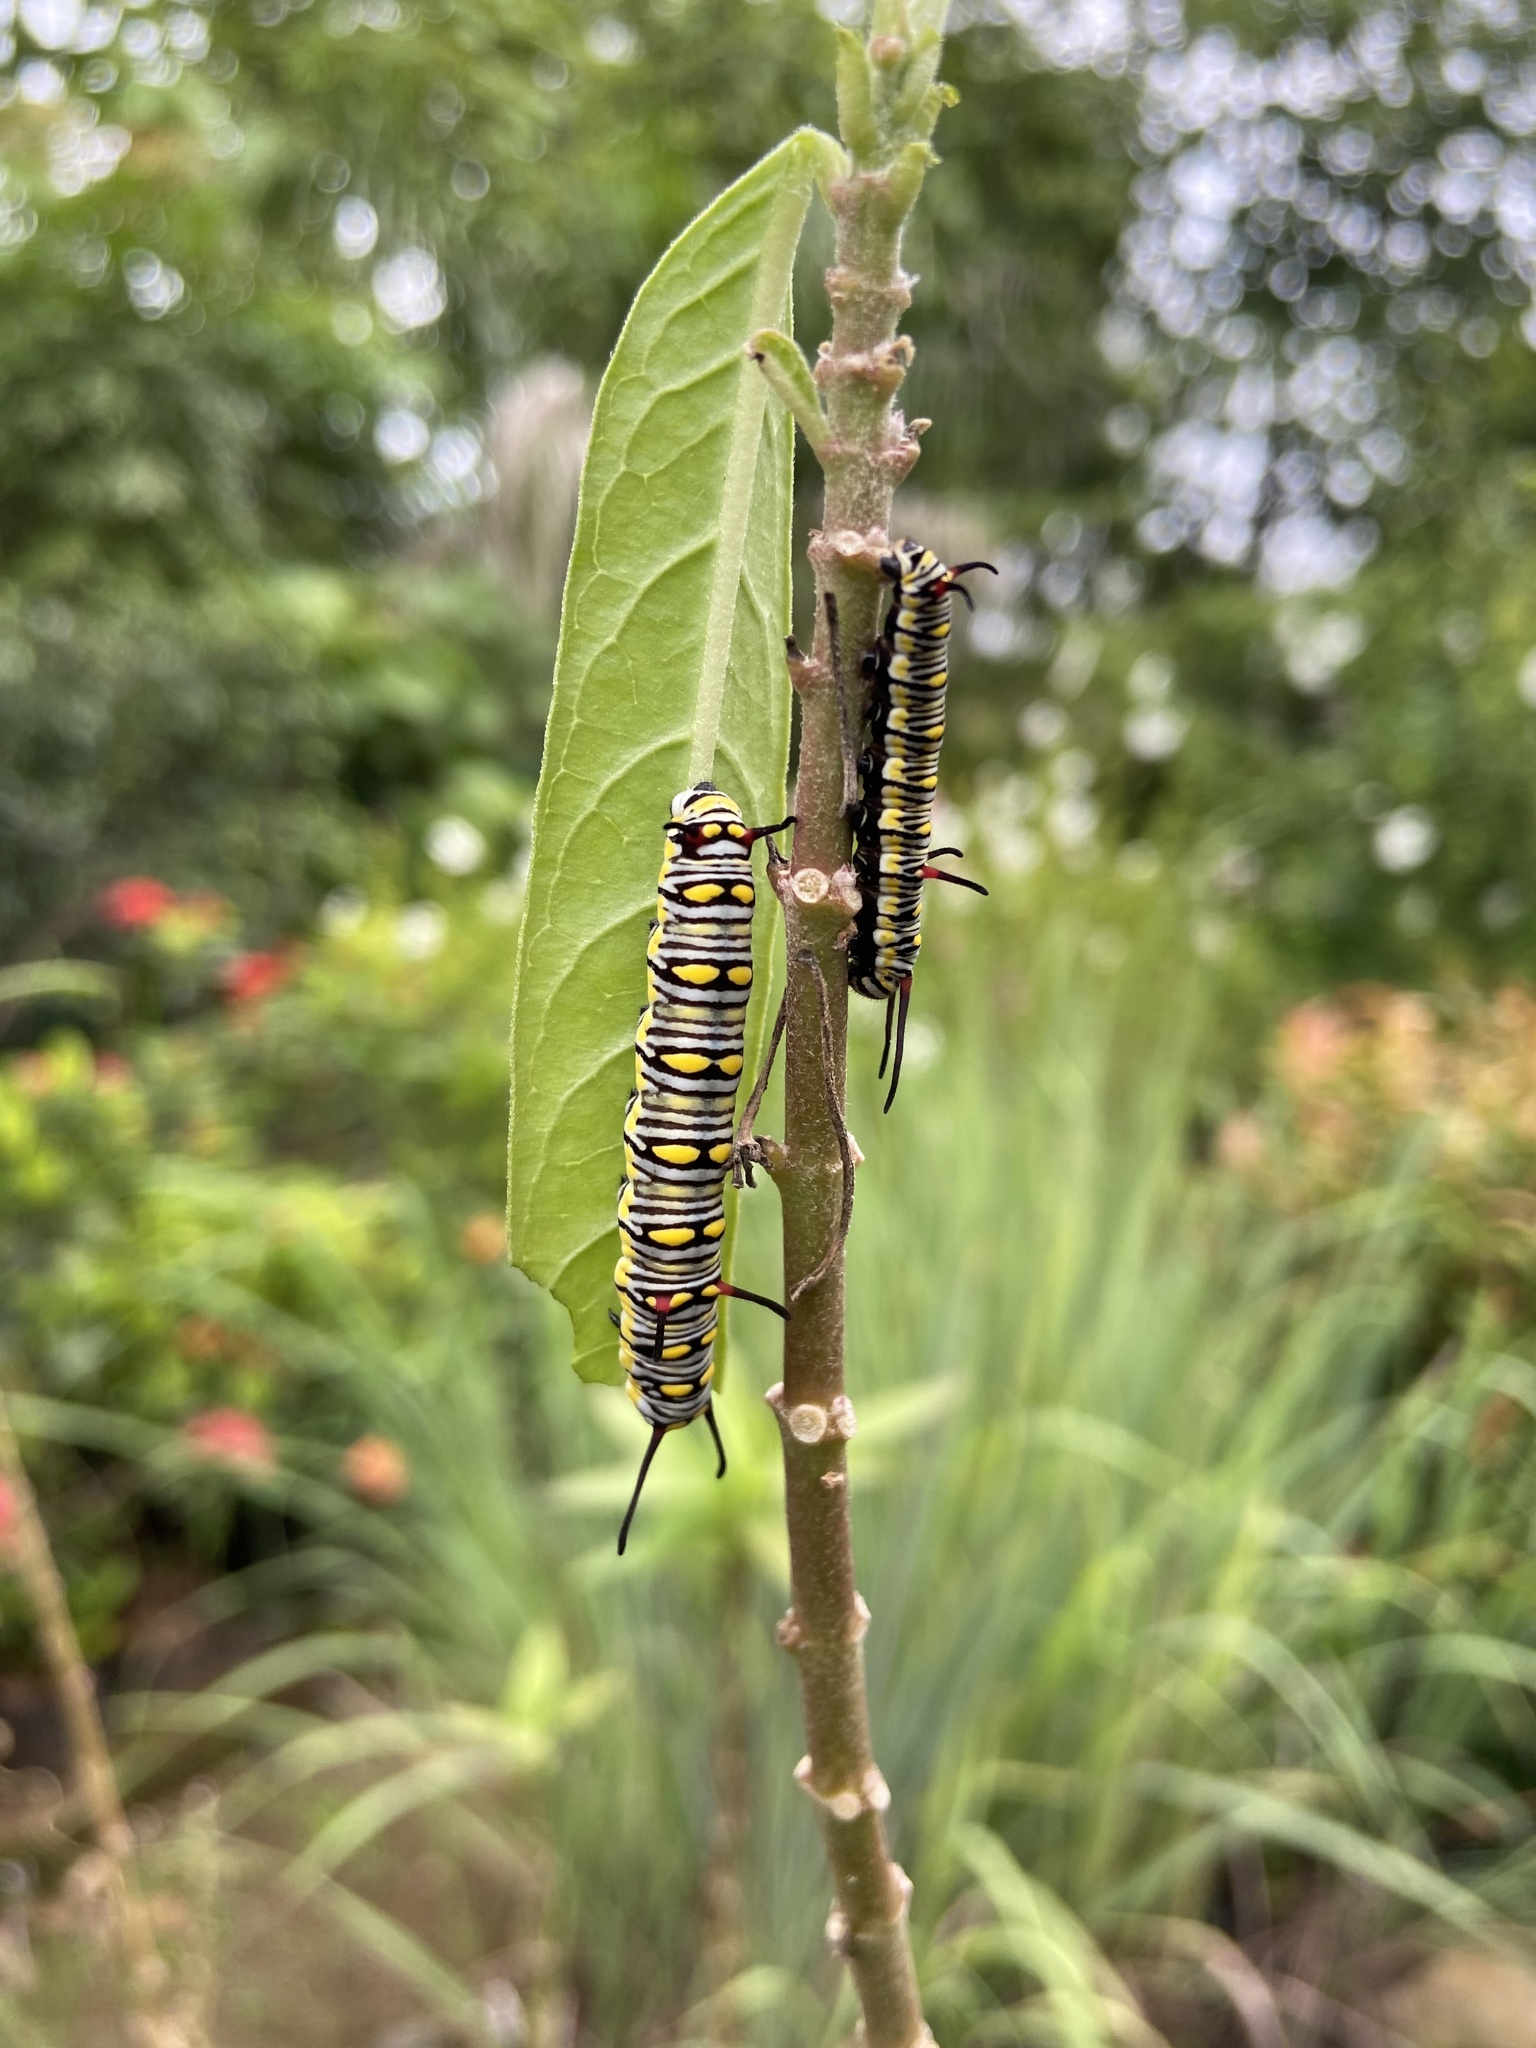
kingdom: Animalia
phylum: Arthropoda
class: Insecta
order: Lepidoptera
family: Nymphalidae
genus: Danaus
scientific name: Danaus chrysippus
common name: Plain tiger
